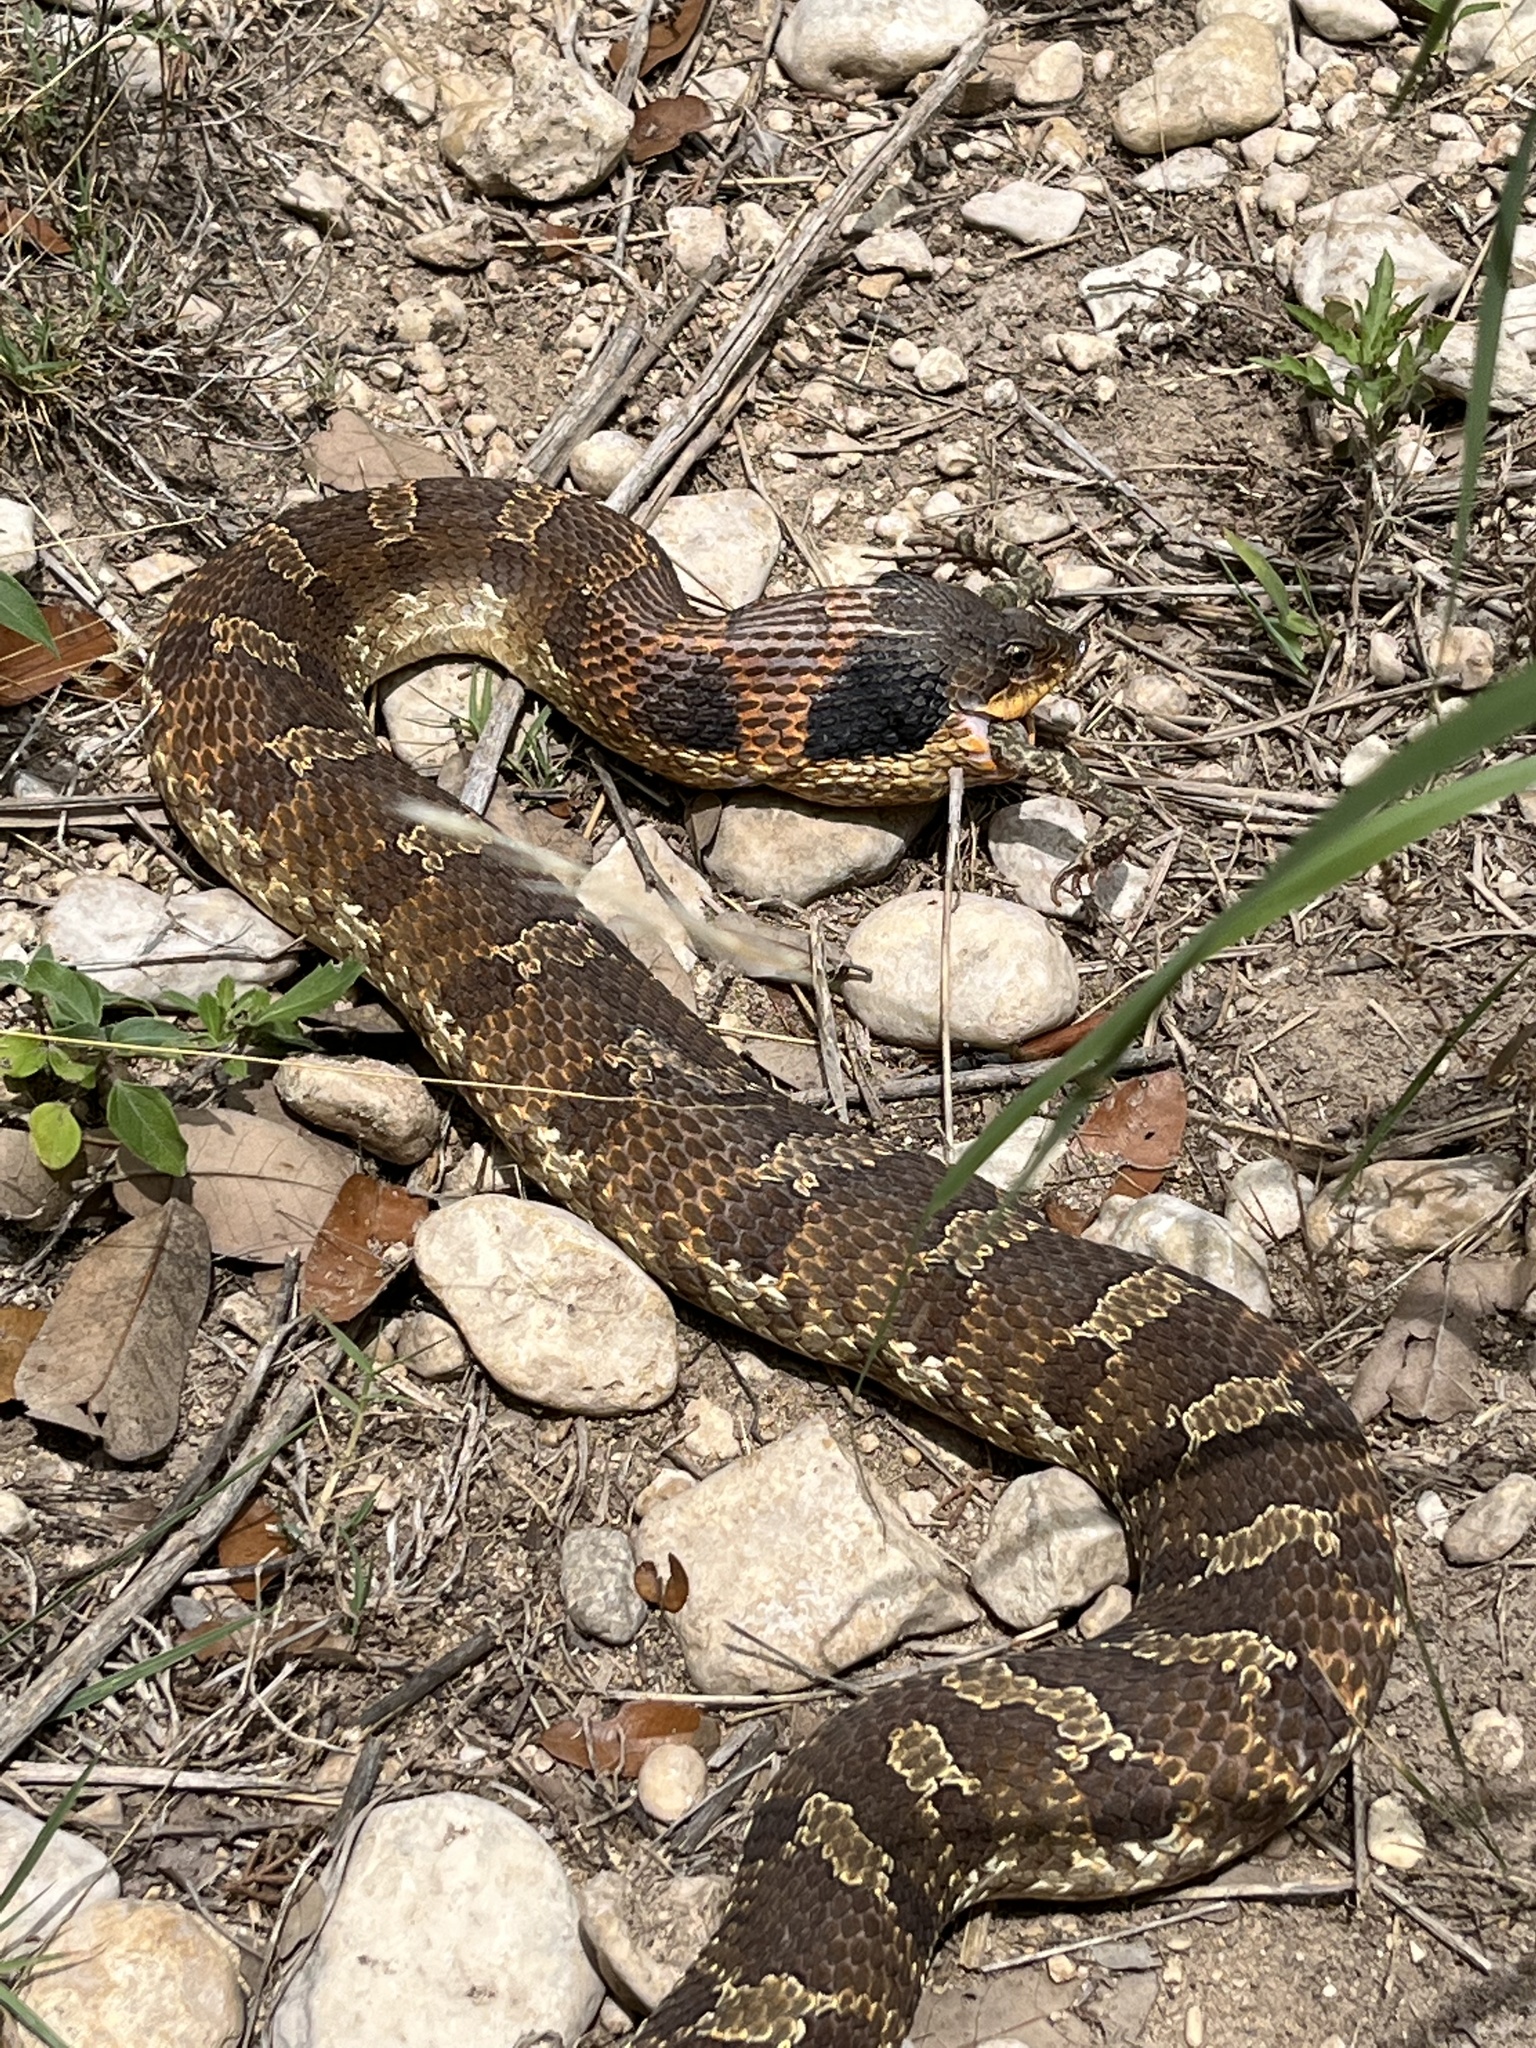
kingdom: Animalia
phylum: Chordata
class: Squamata
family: Colubridae
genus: Heterodon
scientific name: Heterodon platirhinos
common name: Eastern hognose snake
